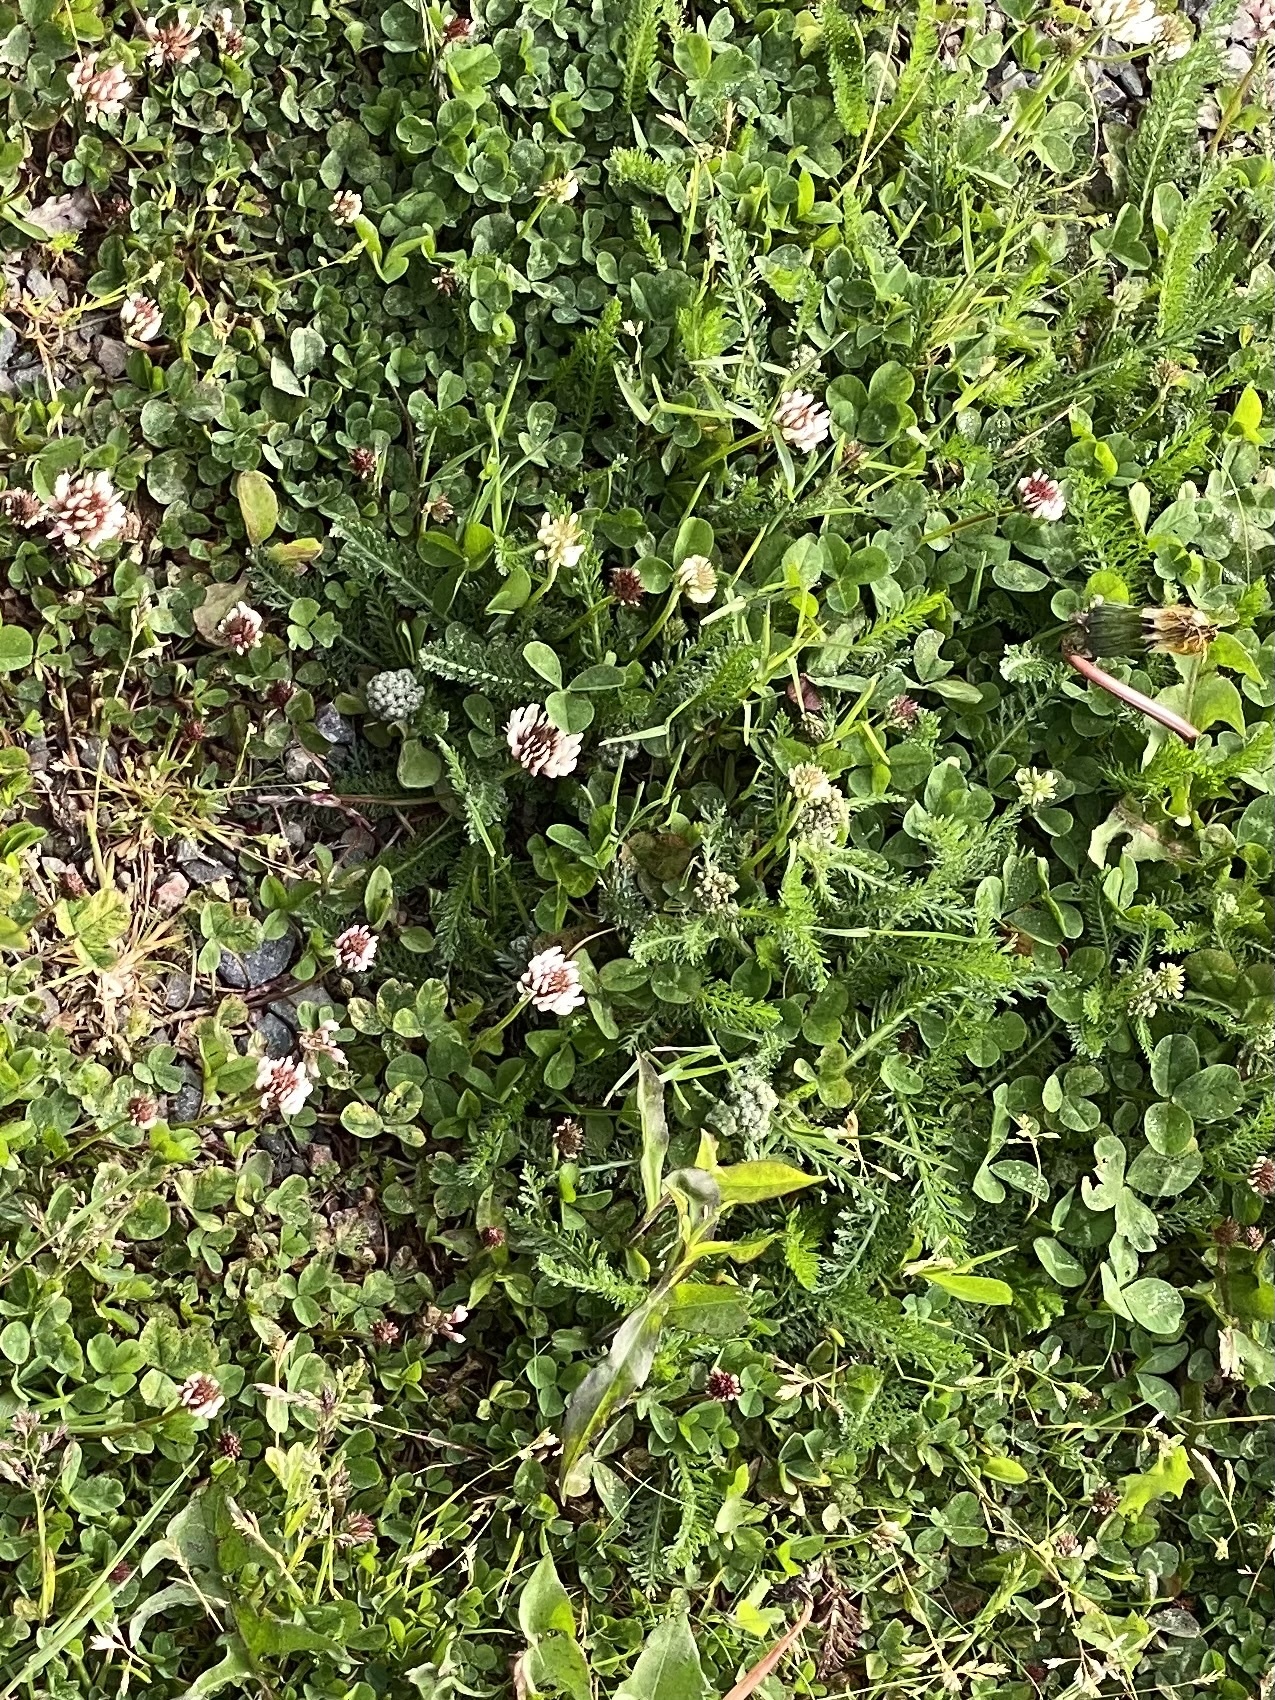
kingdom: Plantae
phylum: Tracheophyta
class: Magnoliopsida
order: Fabales
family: Fabaceae
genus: Trifolium
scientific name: Trifolium repens
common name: White clover
